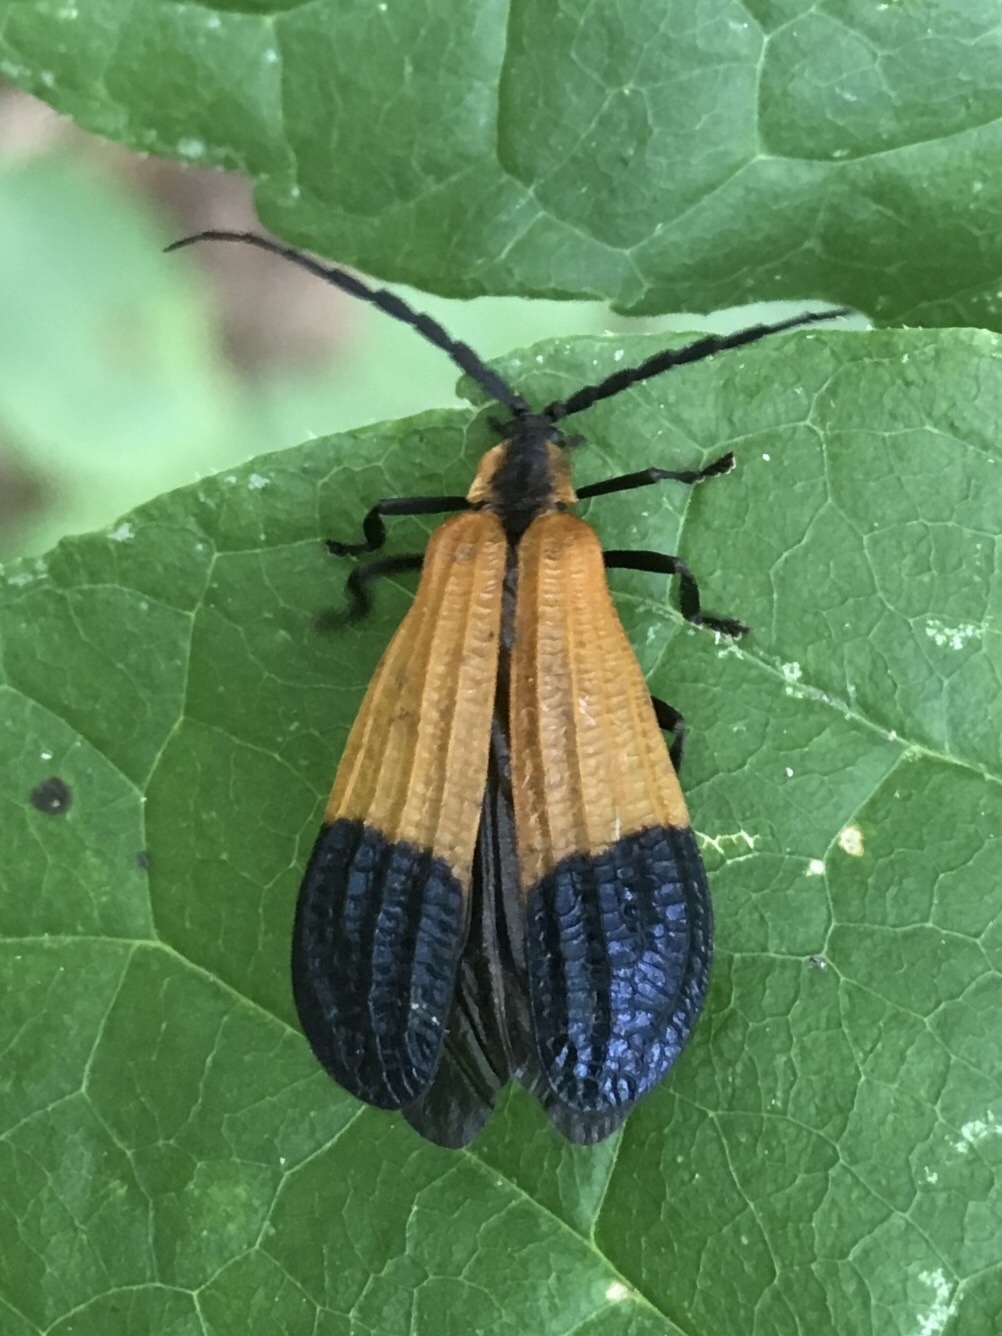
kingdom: Animalia
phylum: Arthropoda
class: Insecta
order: Coleoptera
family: Lycidae
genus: Calopteron
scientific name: Calopteron terminale
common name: End band net-winged beetle
